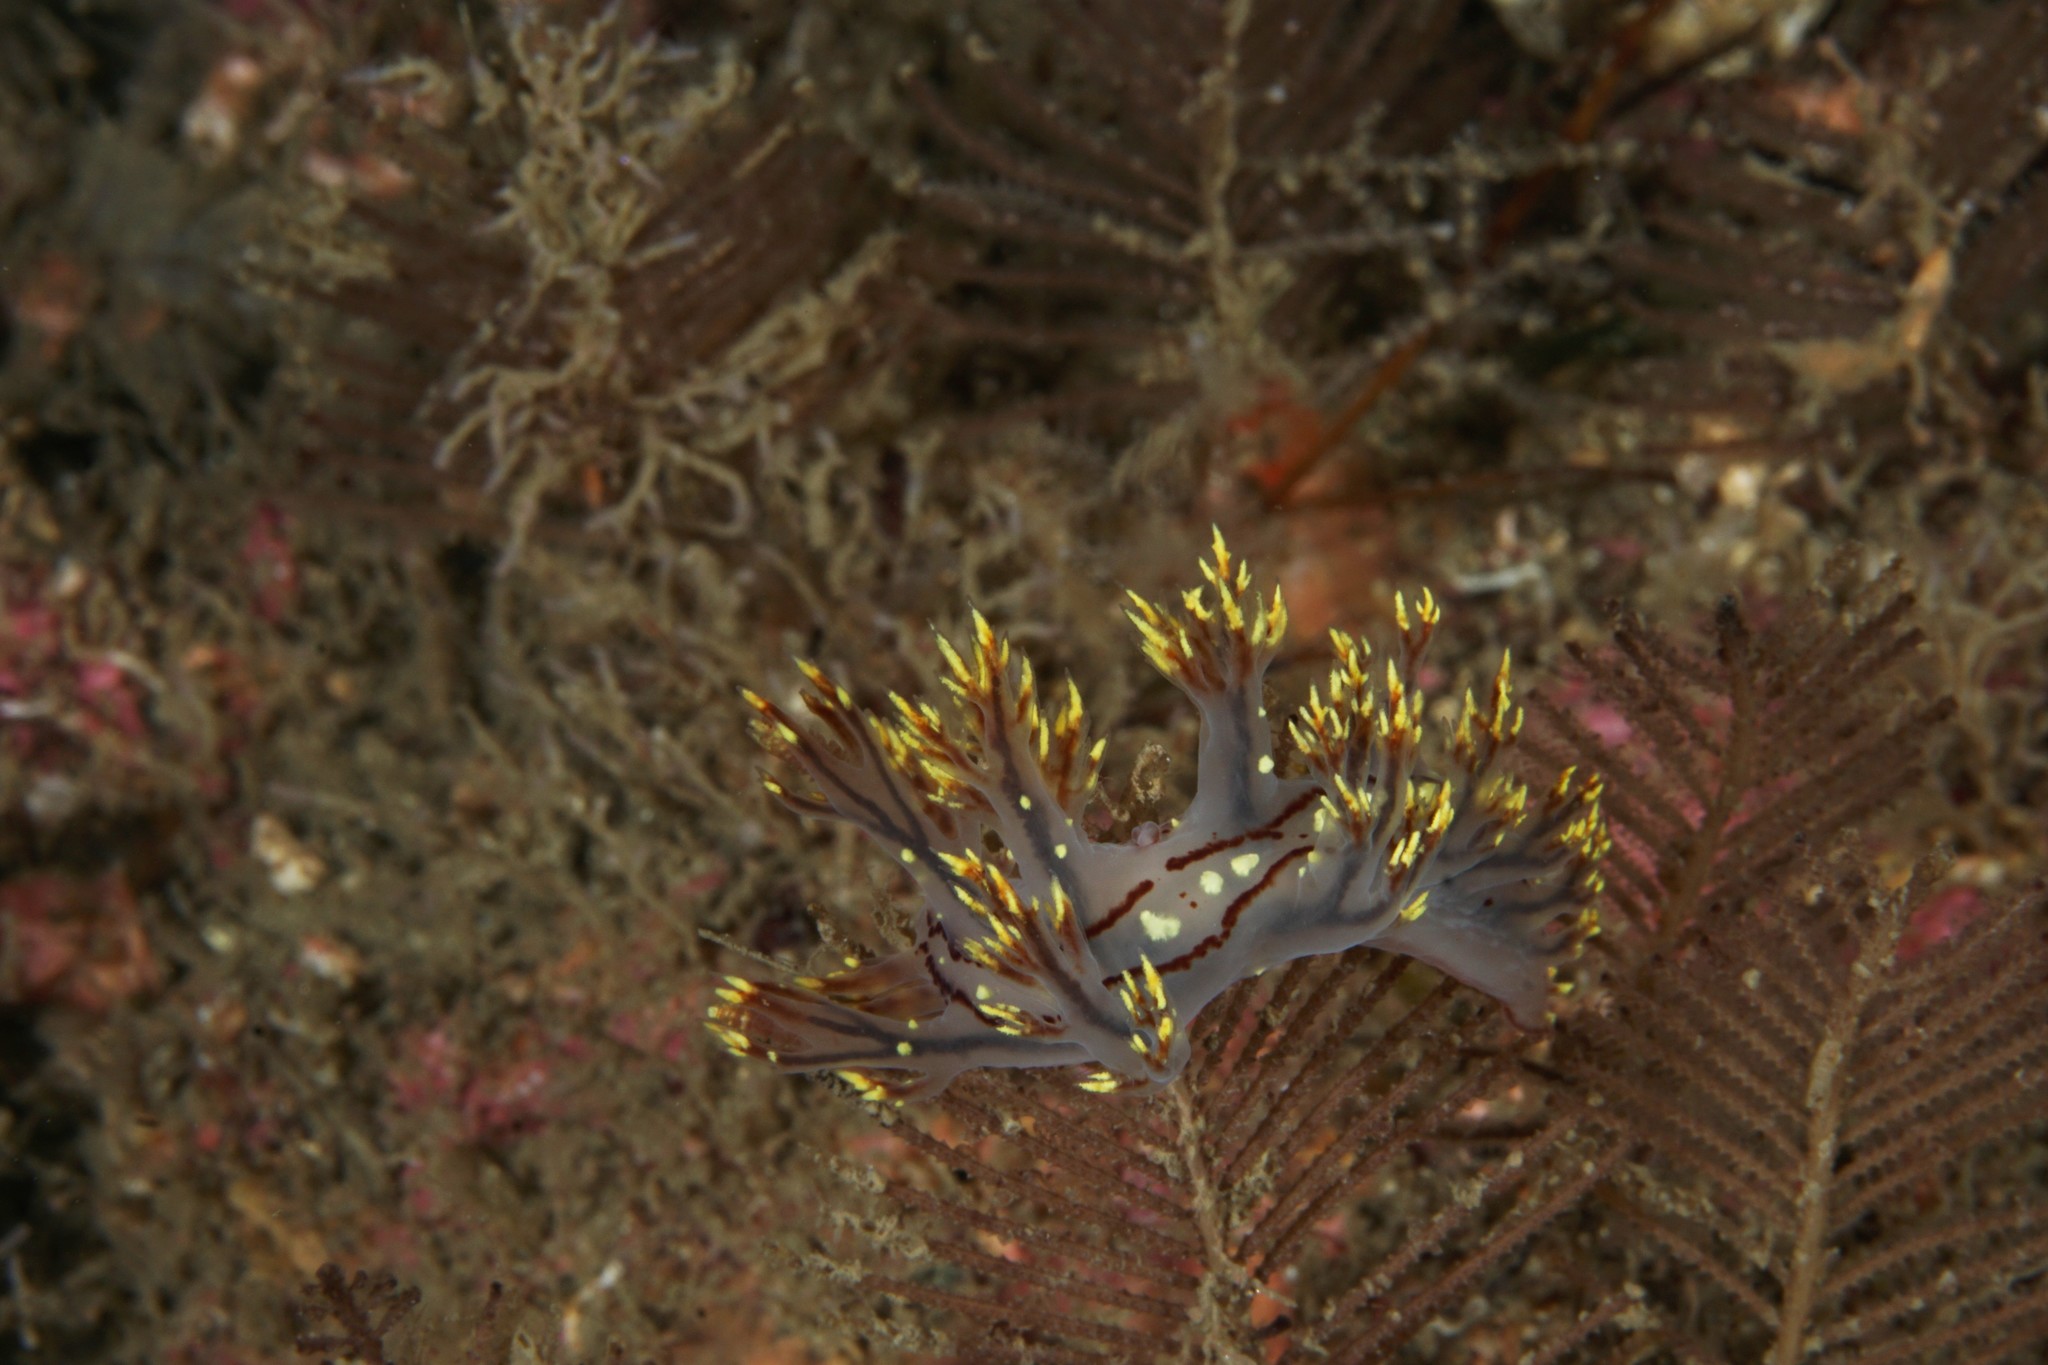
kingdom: Animalia
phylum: Mollusca
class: Gastropoda
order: Nudibranchia
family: Dendronotidae
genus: Dendronotus
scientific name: Dendronotus yrjargul
